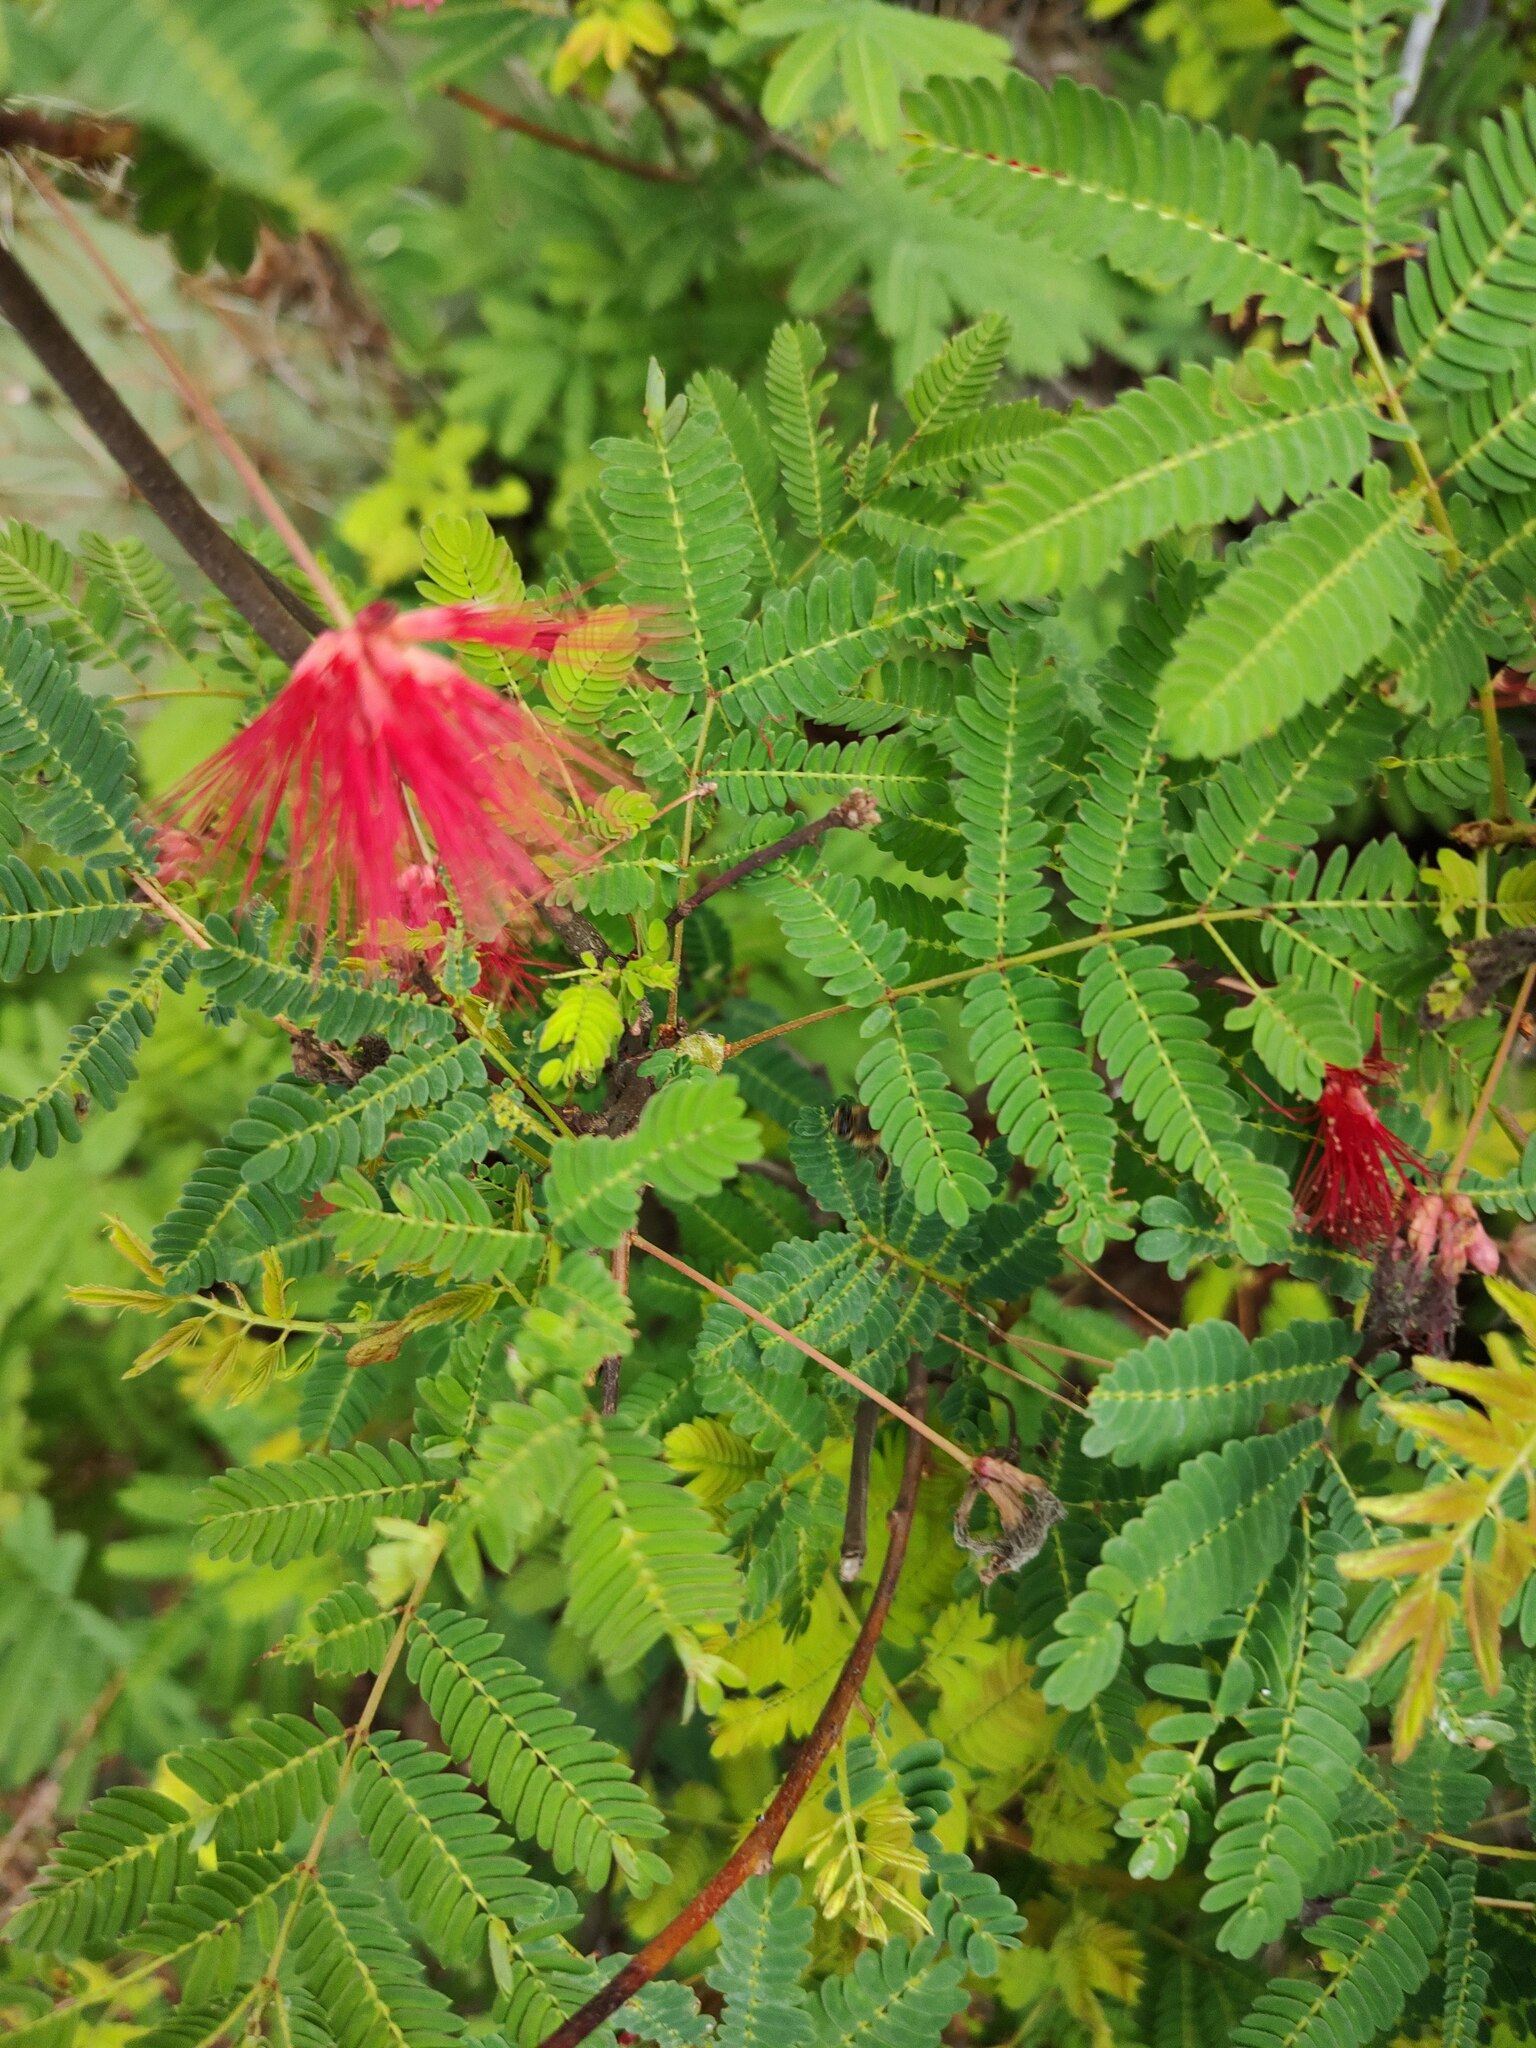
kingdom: Plantae
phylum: Tracheophyta
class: Magnoliopsida
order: Fabales
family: Fabaceae
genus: Calliandra
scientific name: Calliandra peninsularis
